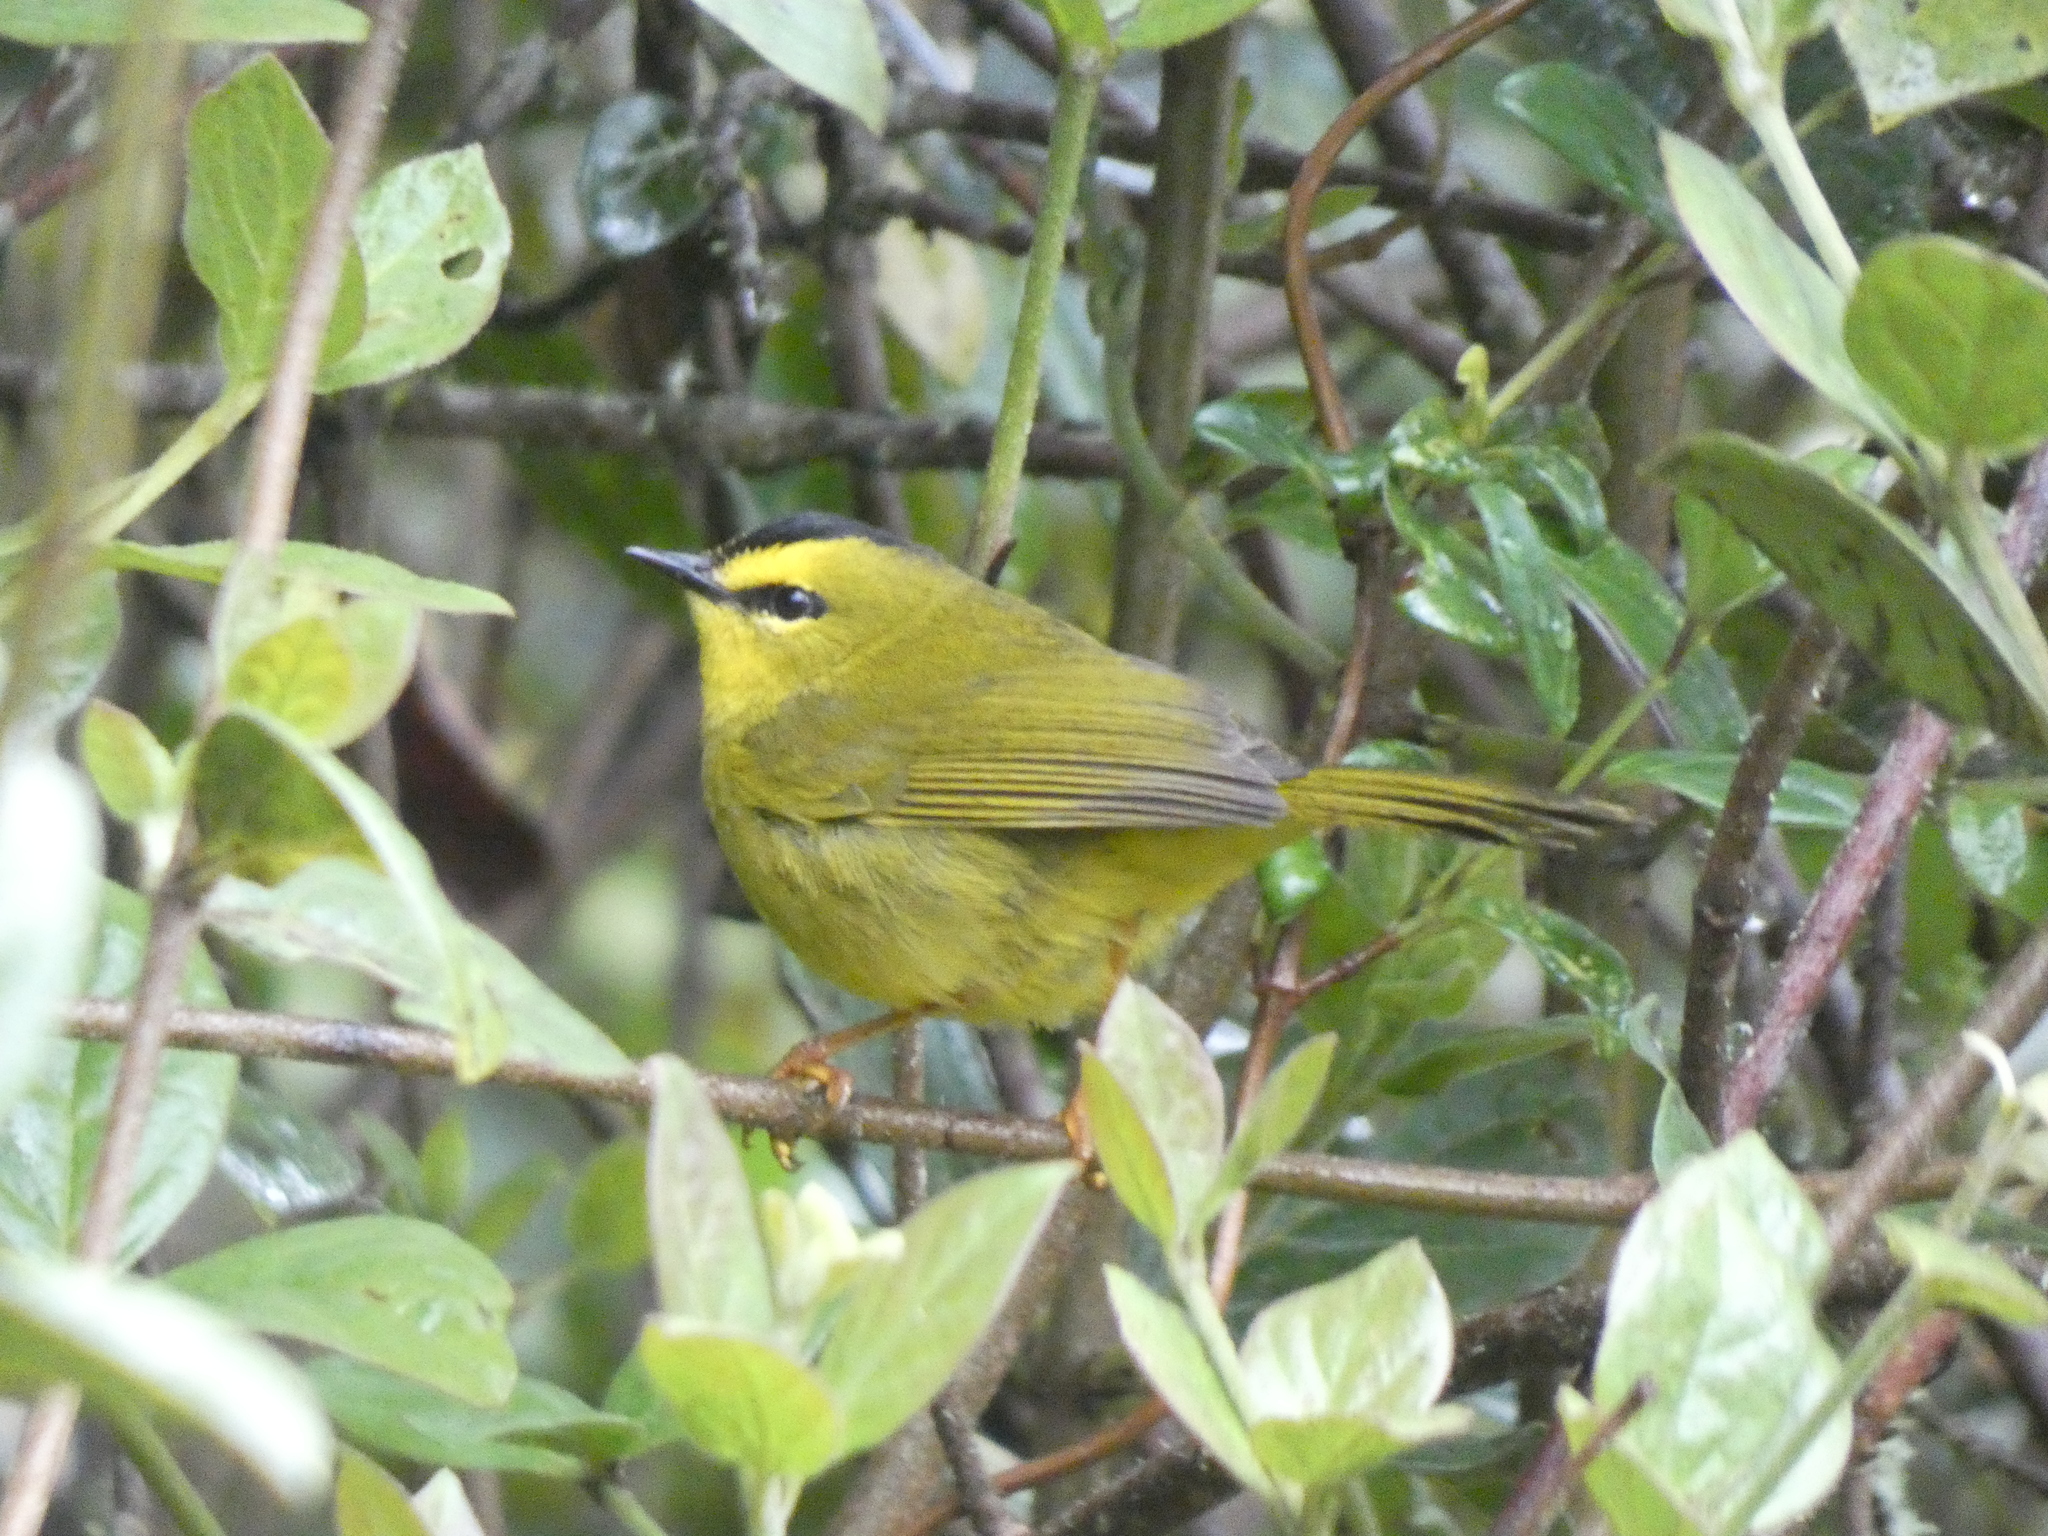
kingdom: Animalia
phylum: Chordata
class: Aves
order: Passeriformes
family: Parulidae
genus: Myiothlypis
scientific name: Myiothlypis nigrocristata
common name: Black-crested warbler
